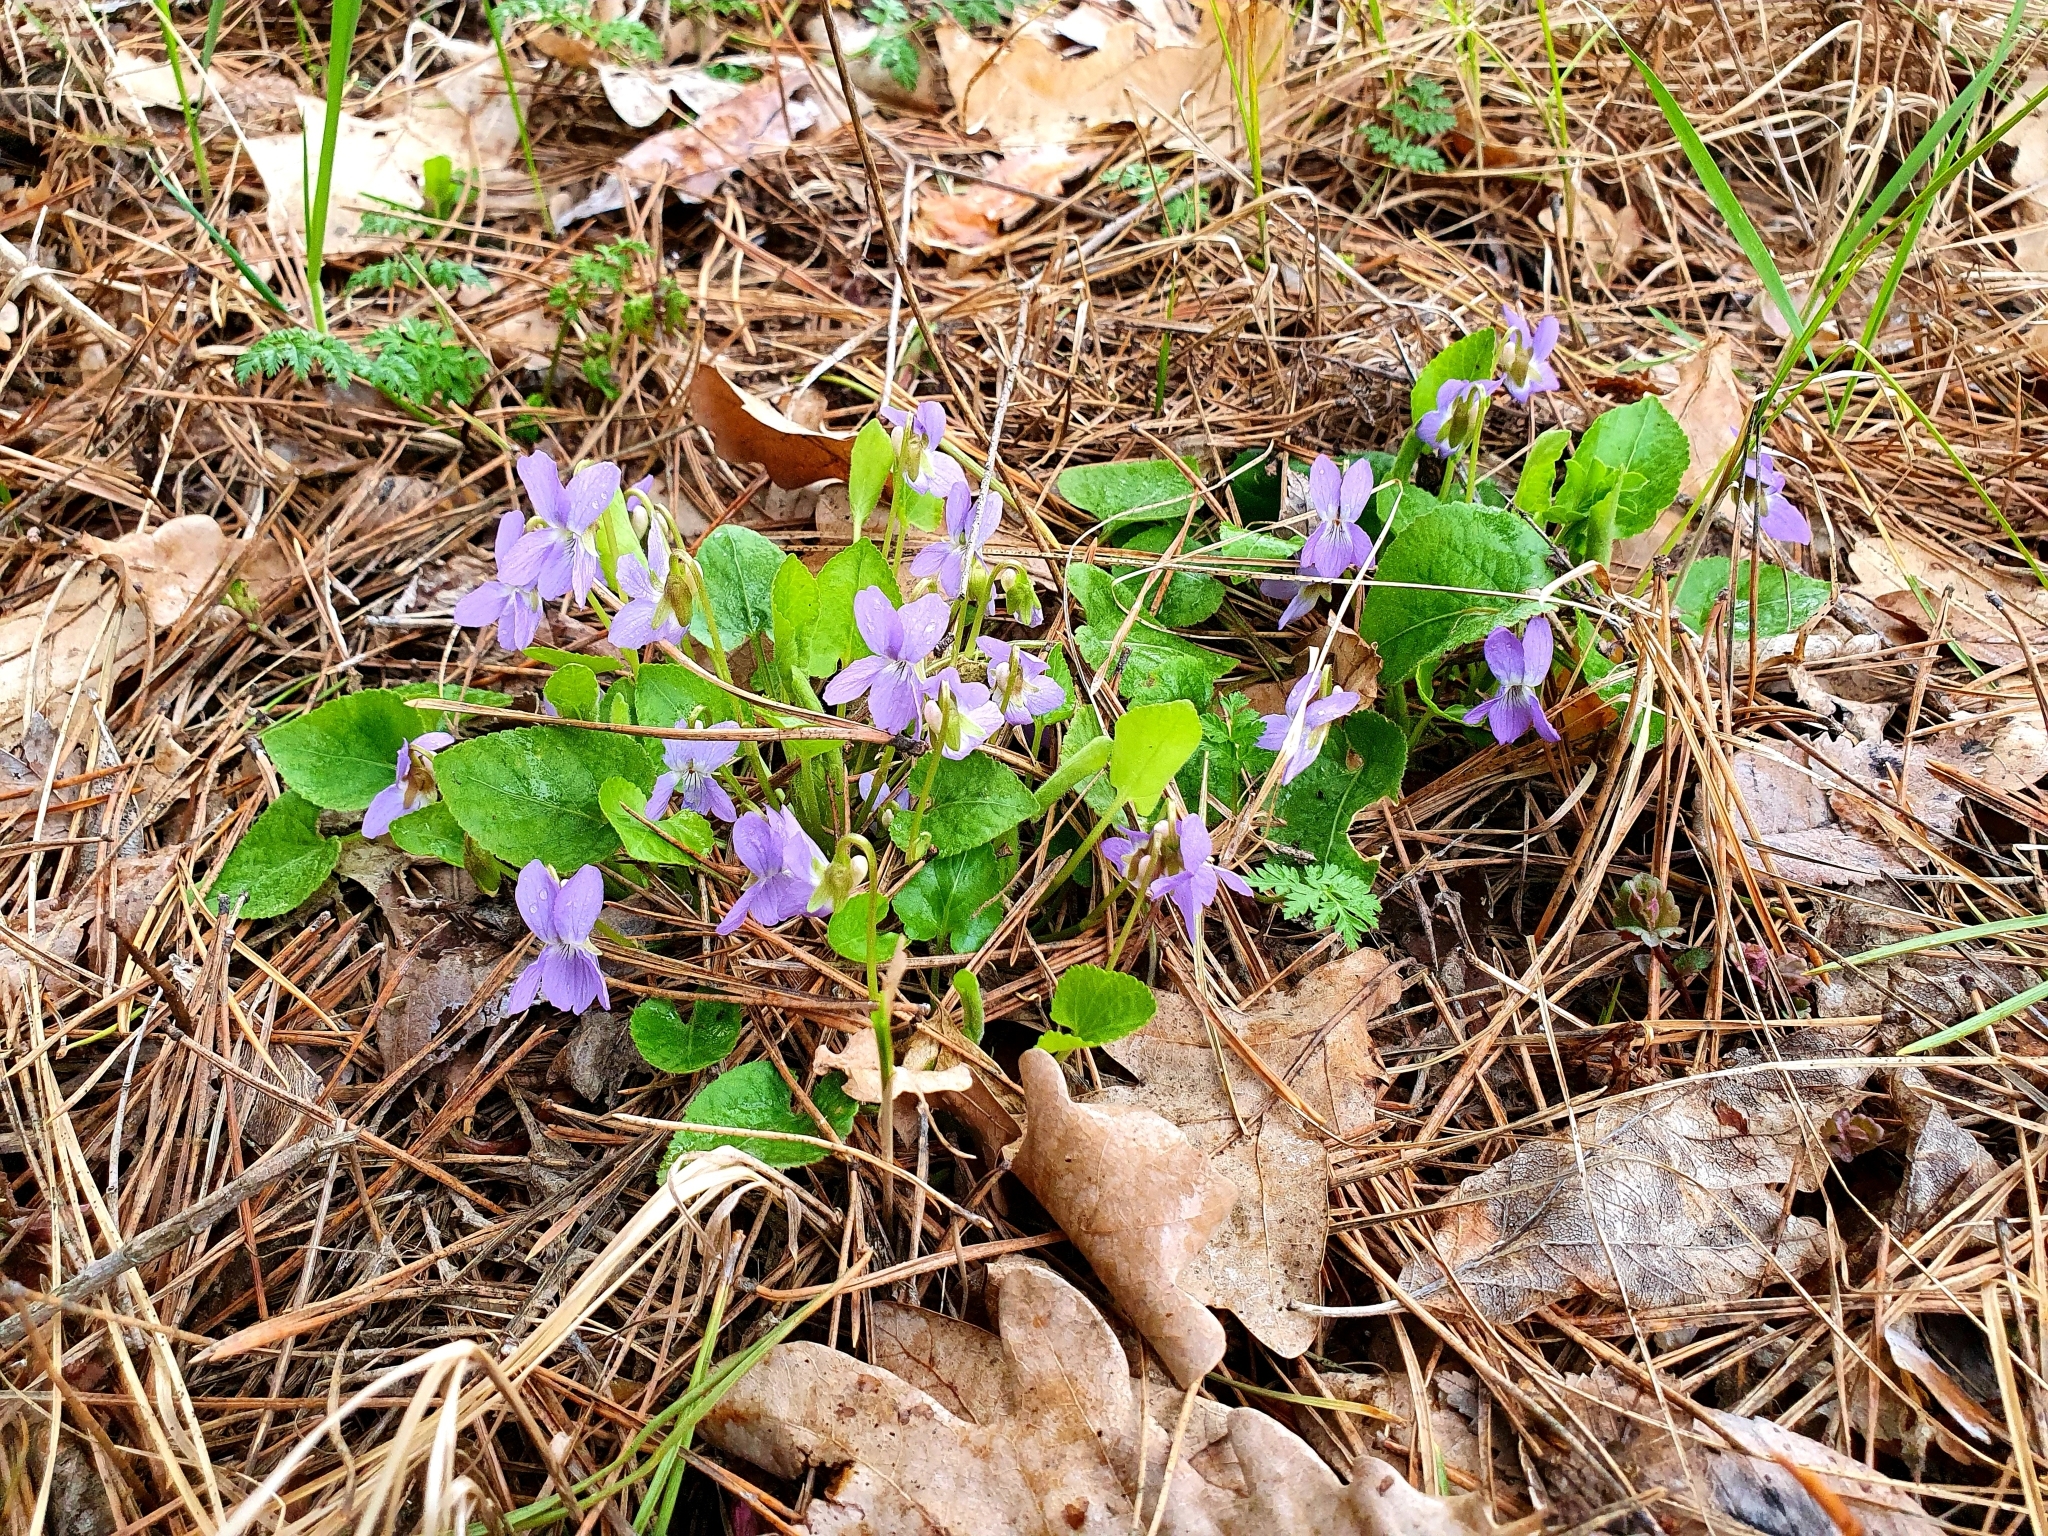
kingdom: Plantae
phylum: Tracheophyta
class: Magnoliopsida
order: Malpighiales
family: Violaceae
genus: Viola
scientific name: Viola collina
